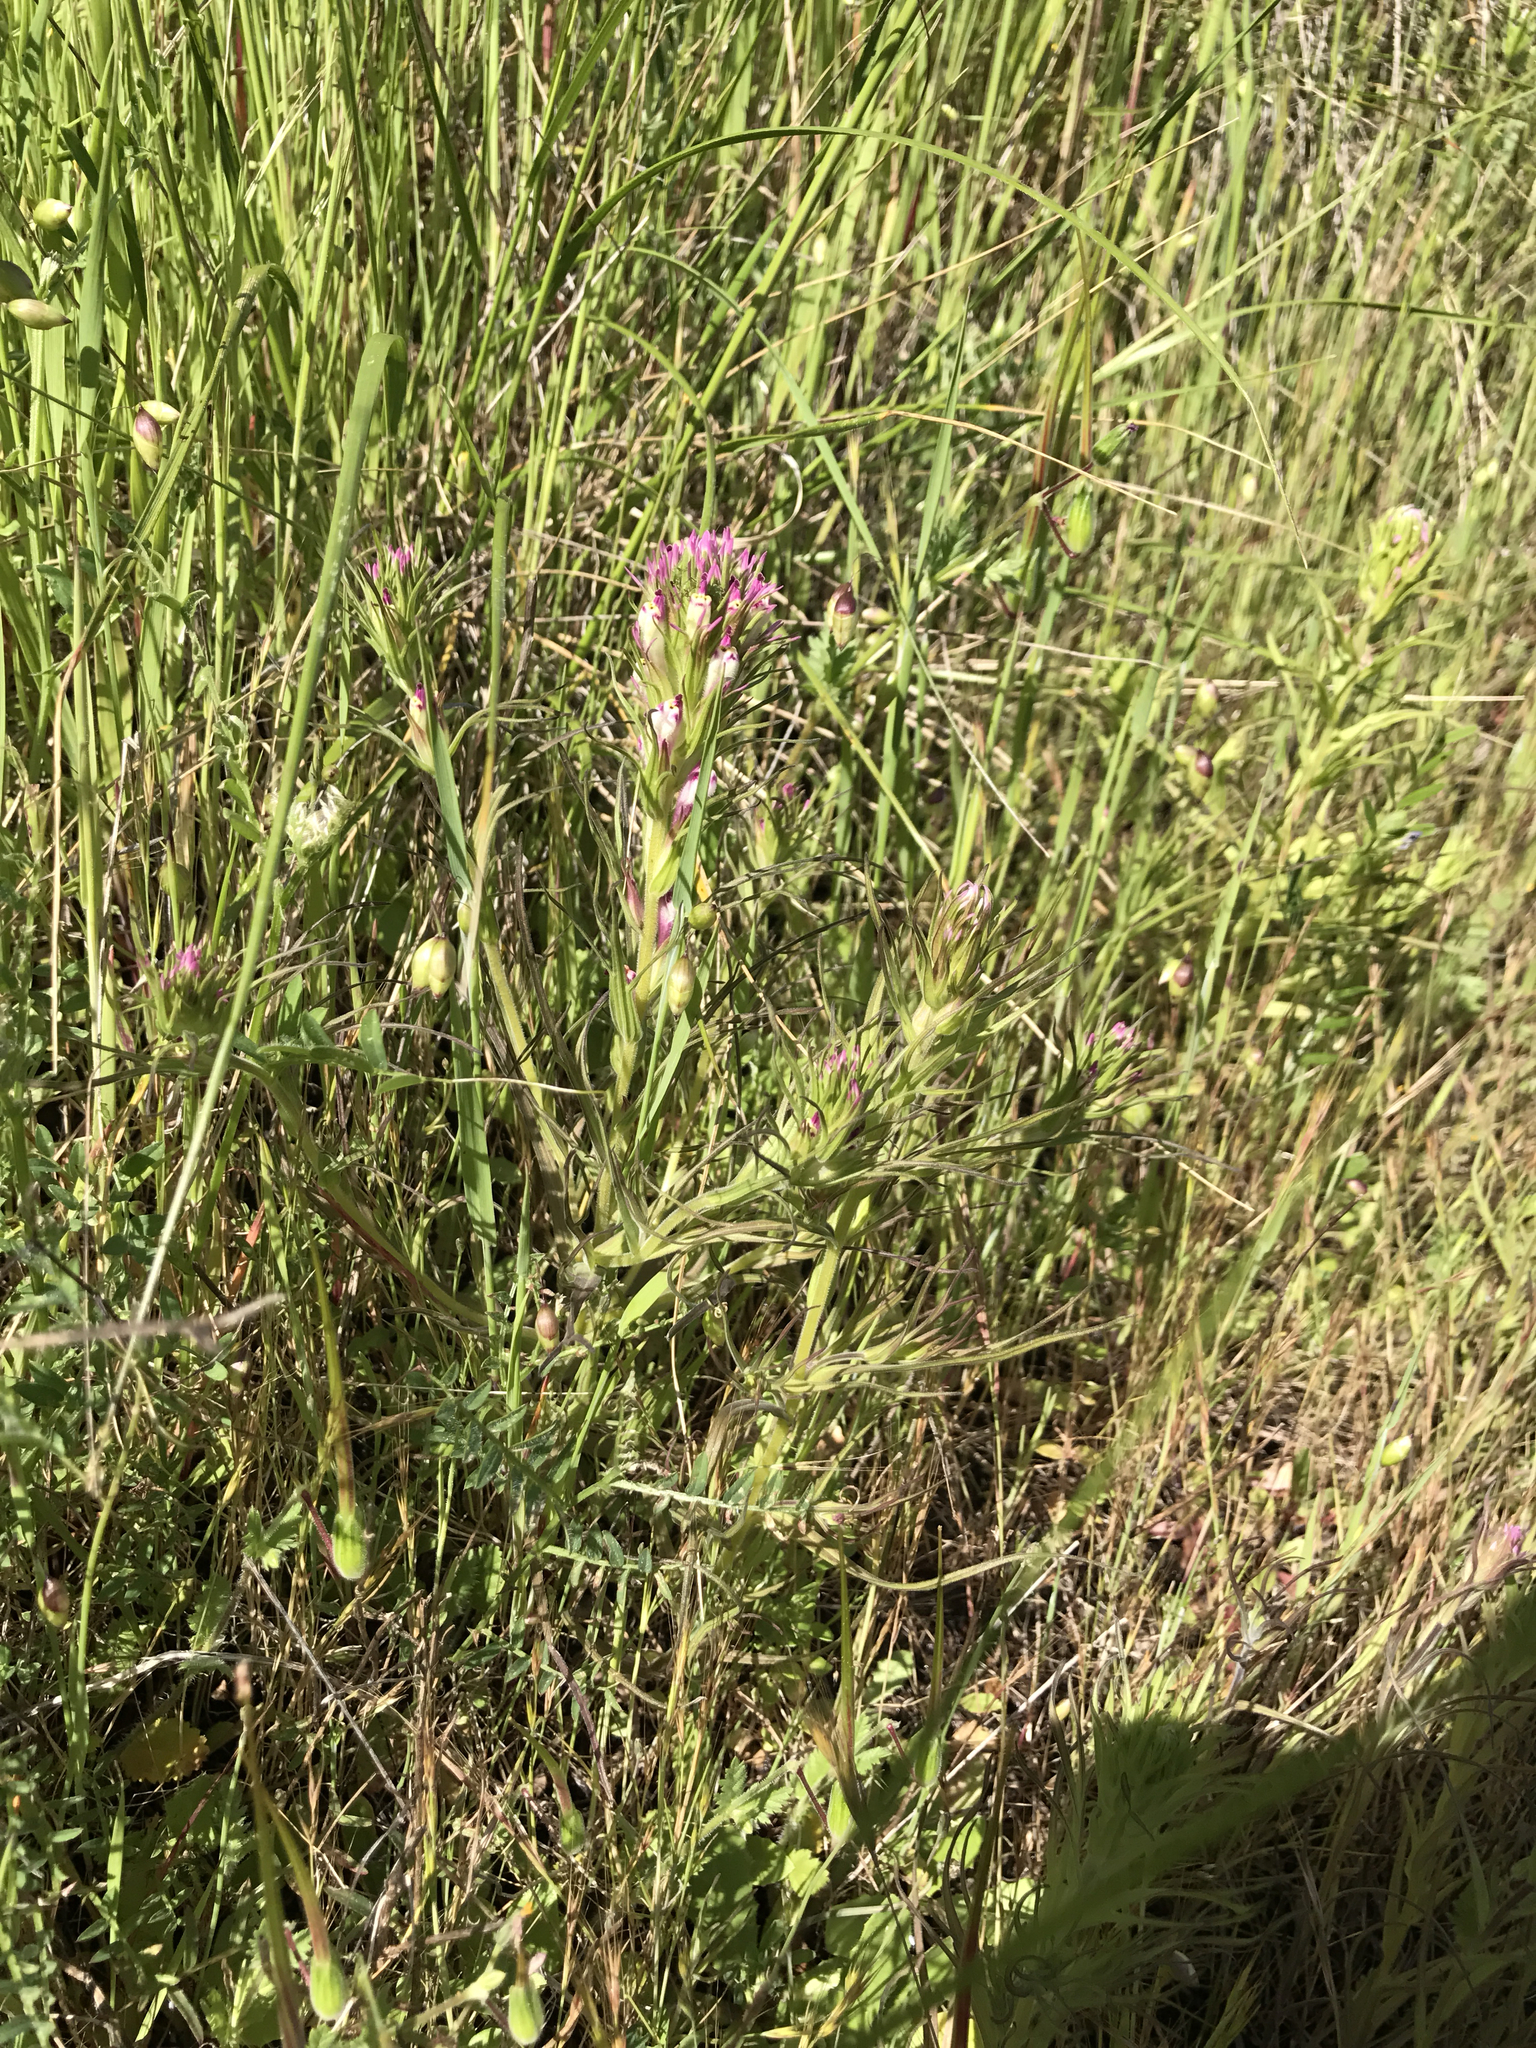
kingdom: Plantae
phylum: Tracheophyta
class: Magnoliopsida
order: Lamiales
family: Orobanchaceae
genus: Castilleja
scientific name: Castilleja densiflora
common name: Dense-flower indian paintbrush
